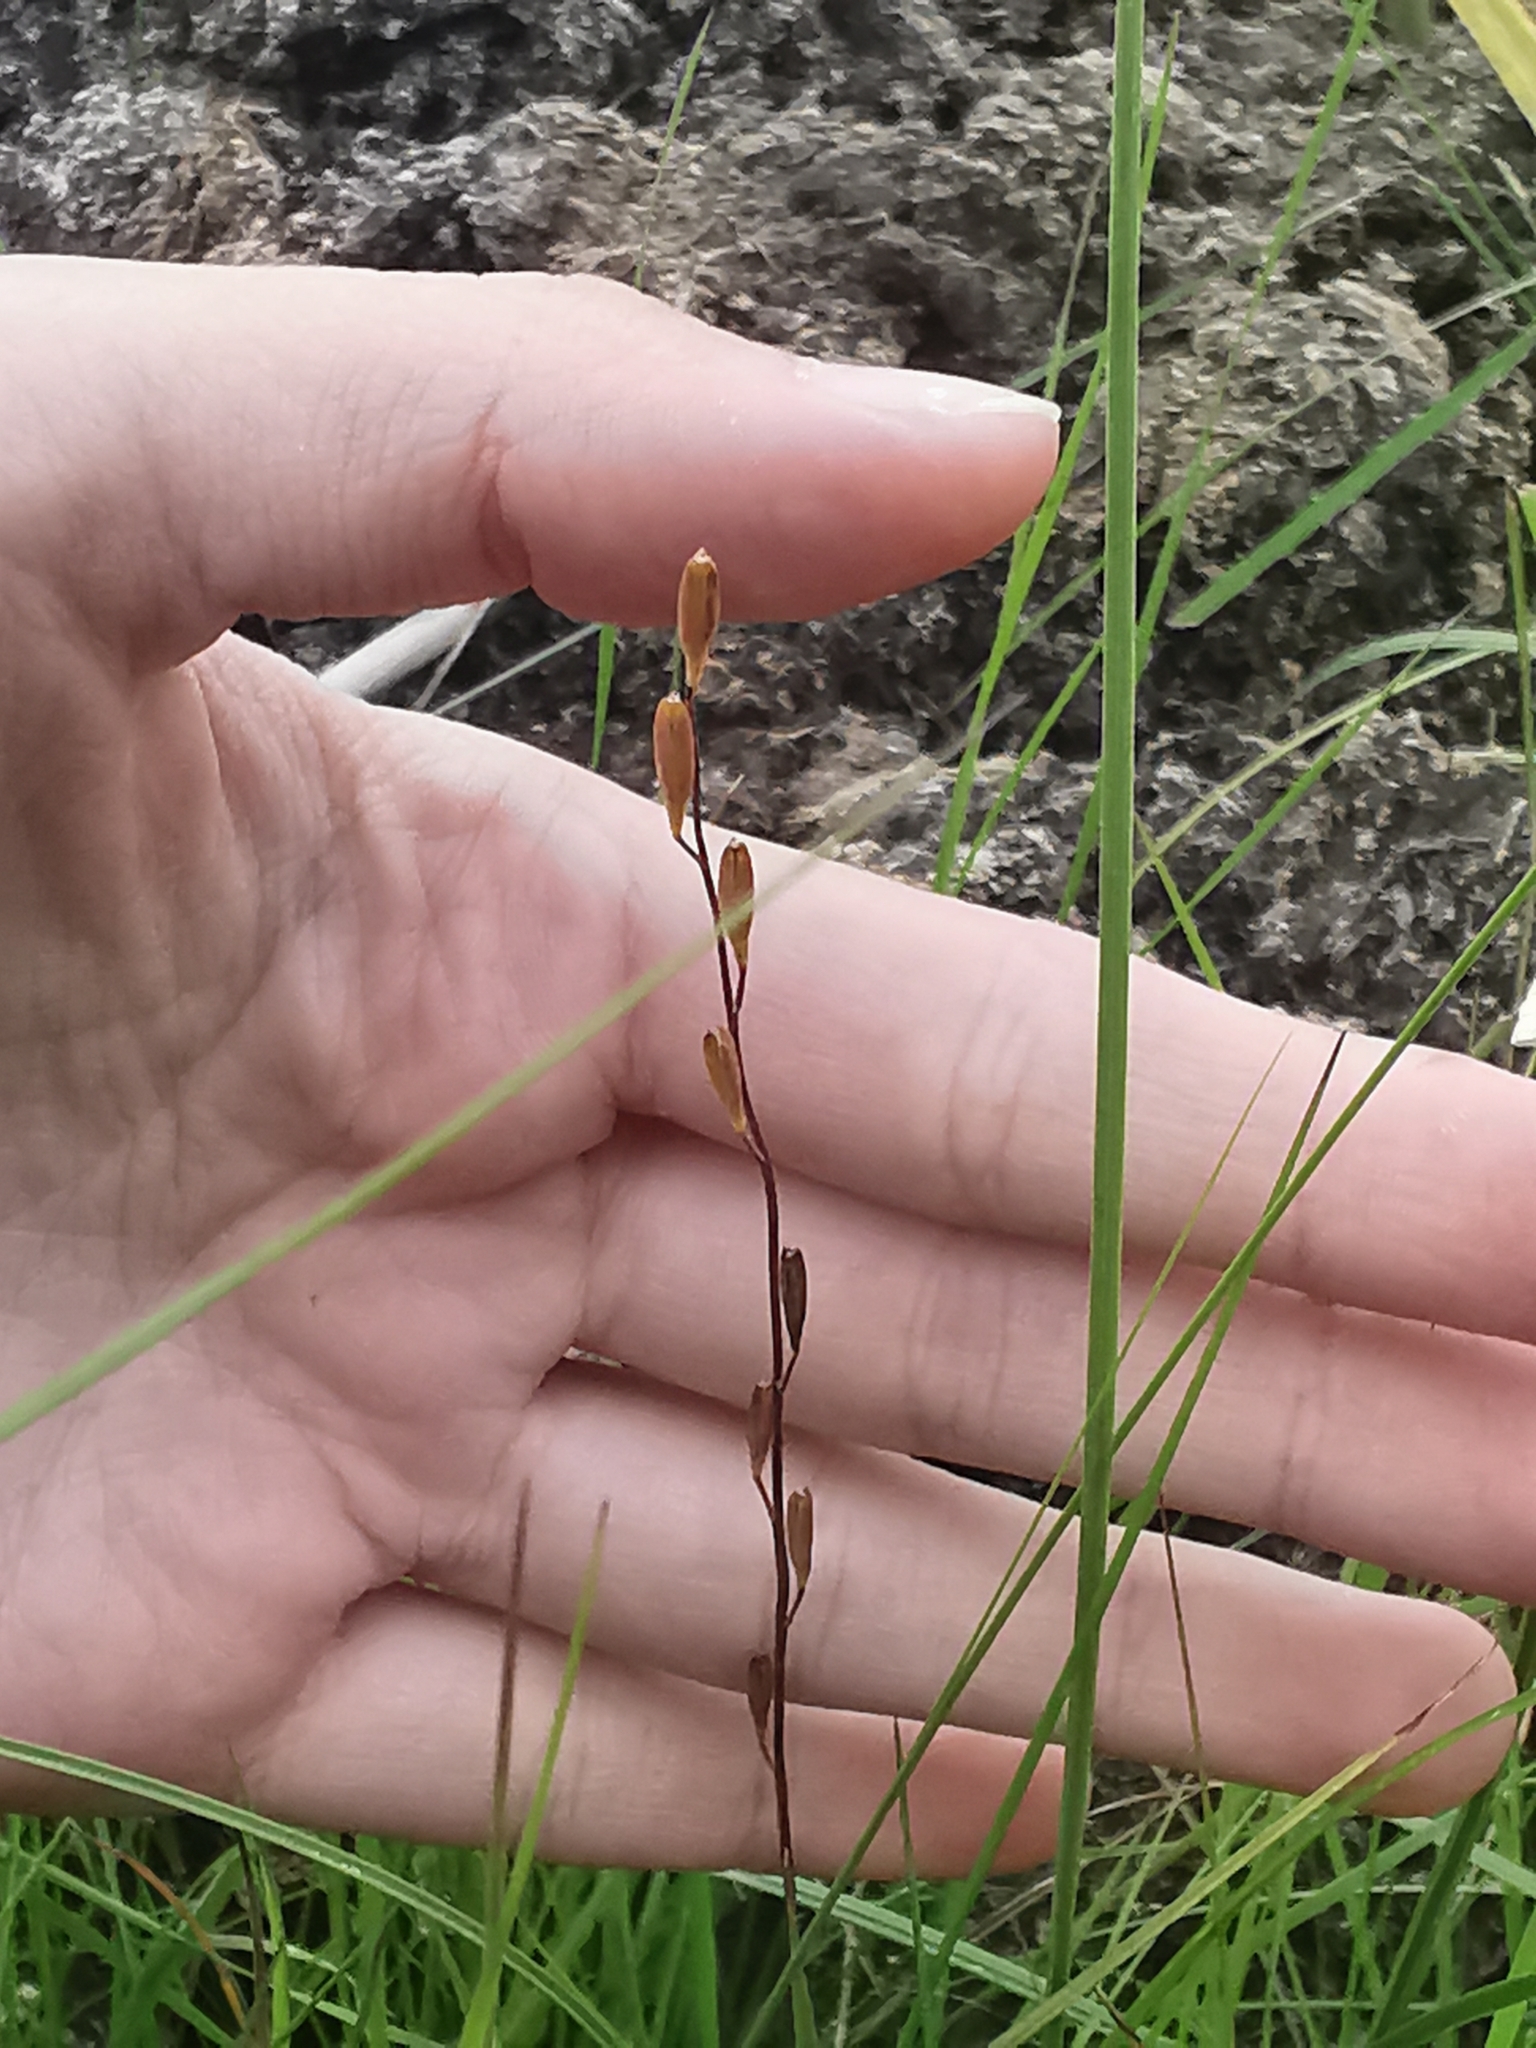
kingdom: Plantae
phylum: Tracheophyta
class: Liliopsida
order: Alismatales
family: Juncaginaceae
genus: Triglochin
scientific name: Triglochin palustris
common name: Marsh arrowgrass
